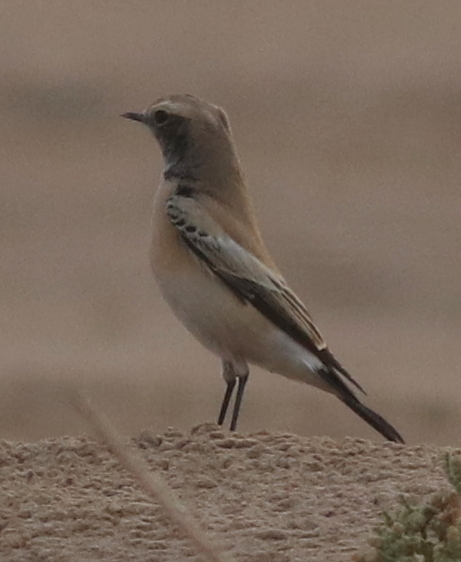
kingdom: Animalia
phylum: Chordata
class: Aves
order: Passeriformes
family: Muscicapidae
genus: Oenanthe
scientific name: Oenanthe deserti
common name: Desert wheatear
